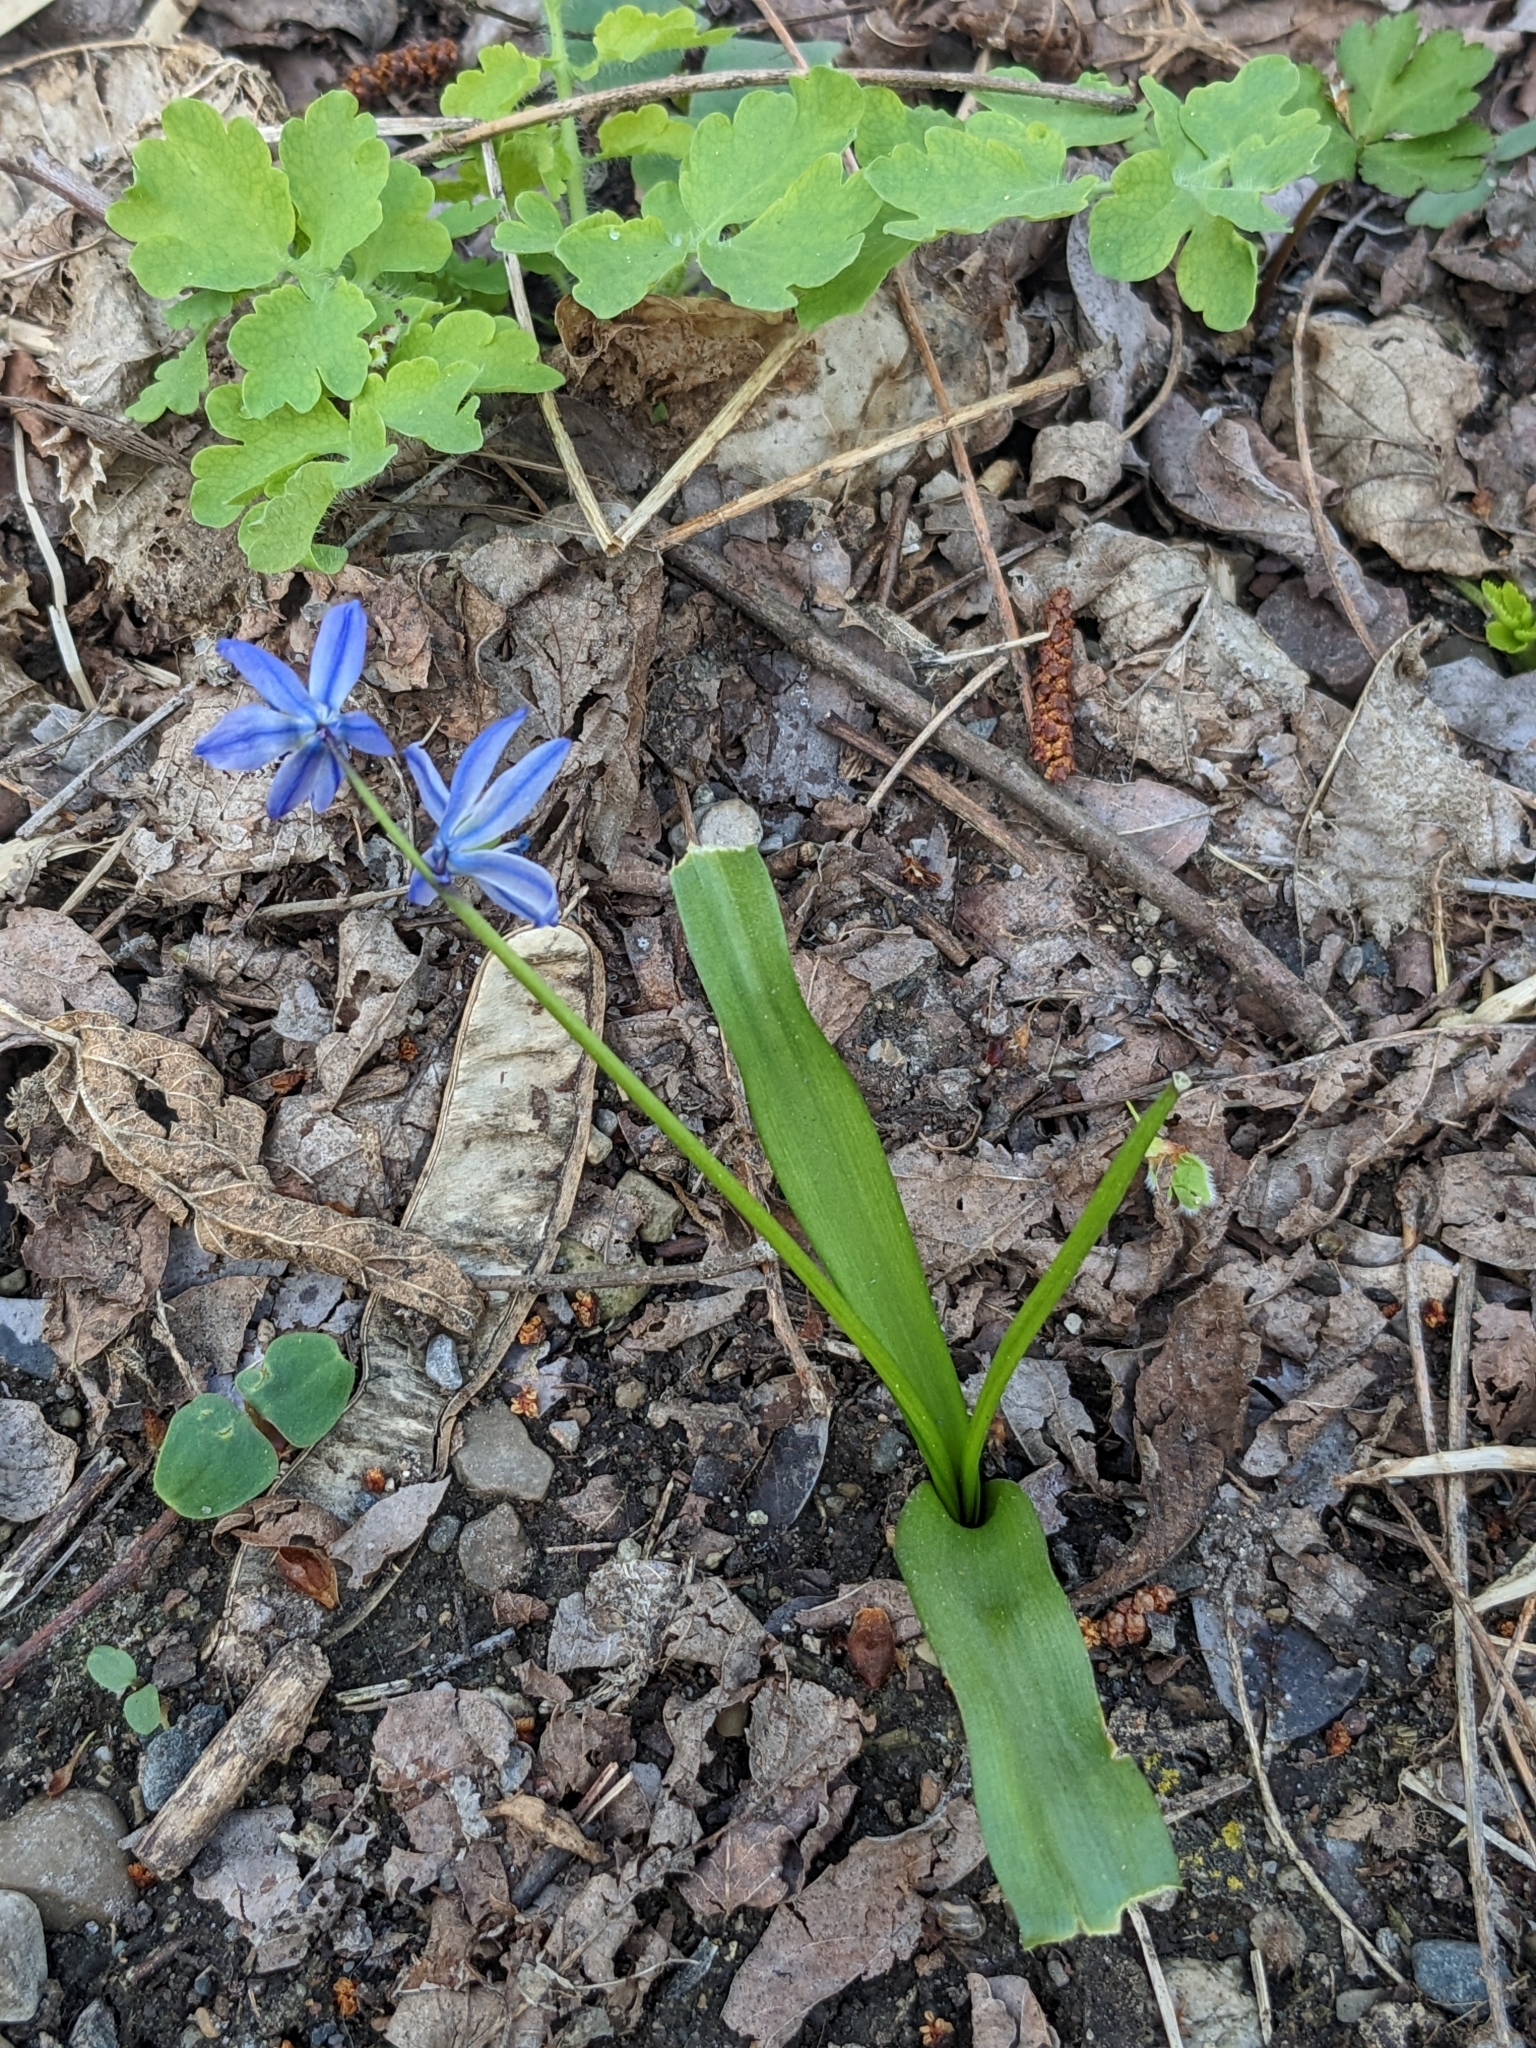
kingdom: Plantae
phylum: Tracheophyta
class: Liliopsida
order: Asparagales
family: Asparagaceae
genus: Scilla
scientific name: Scilla siberica
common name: Siberian squill
